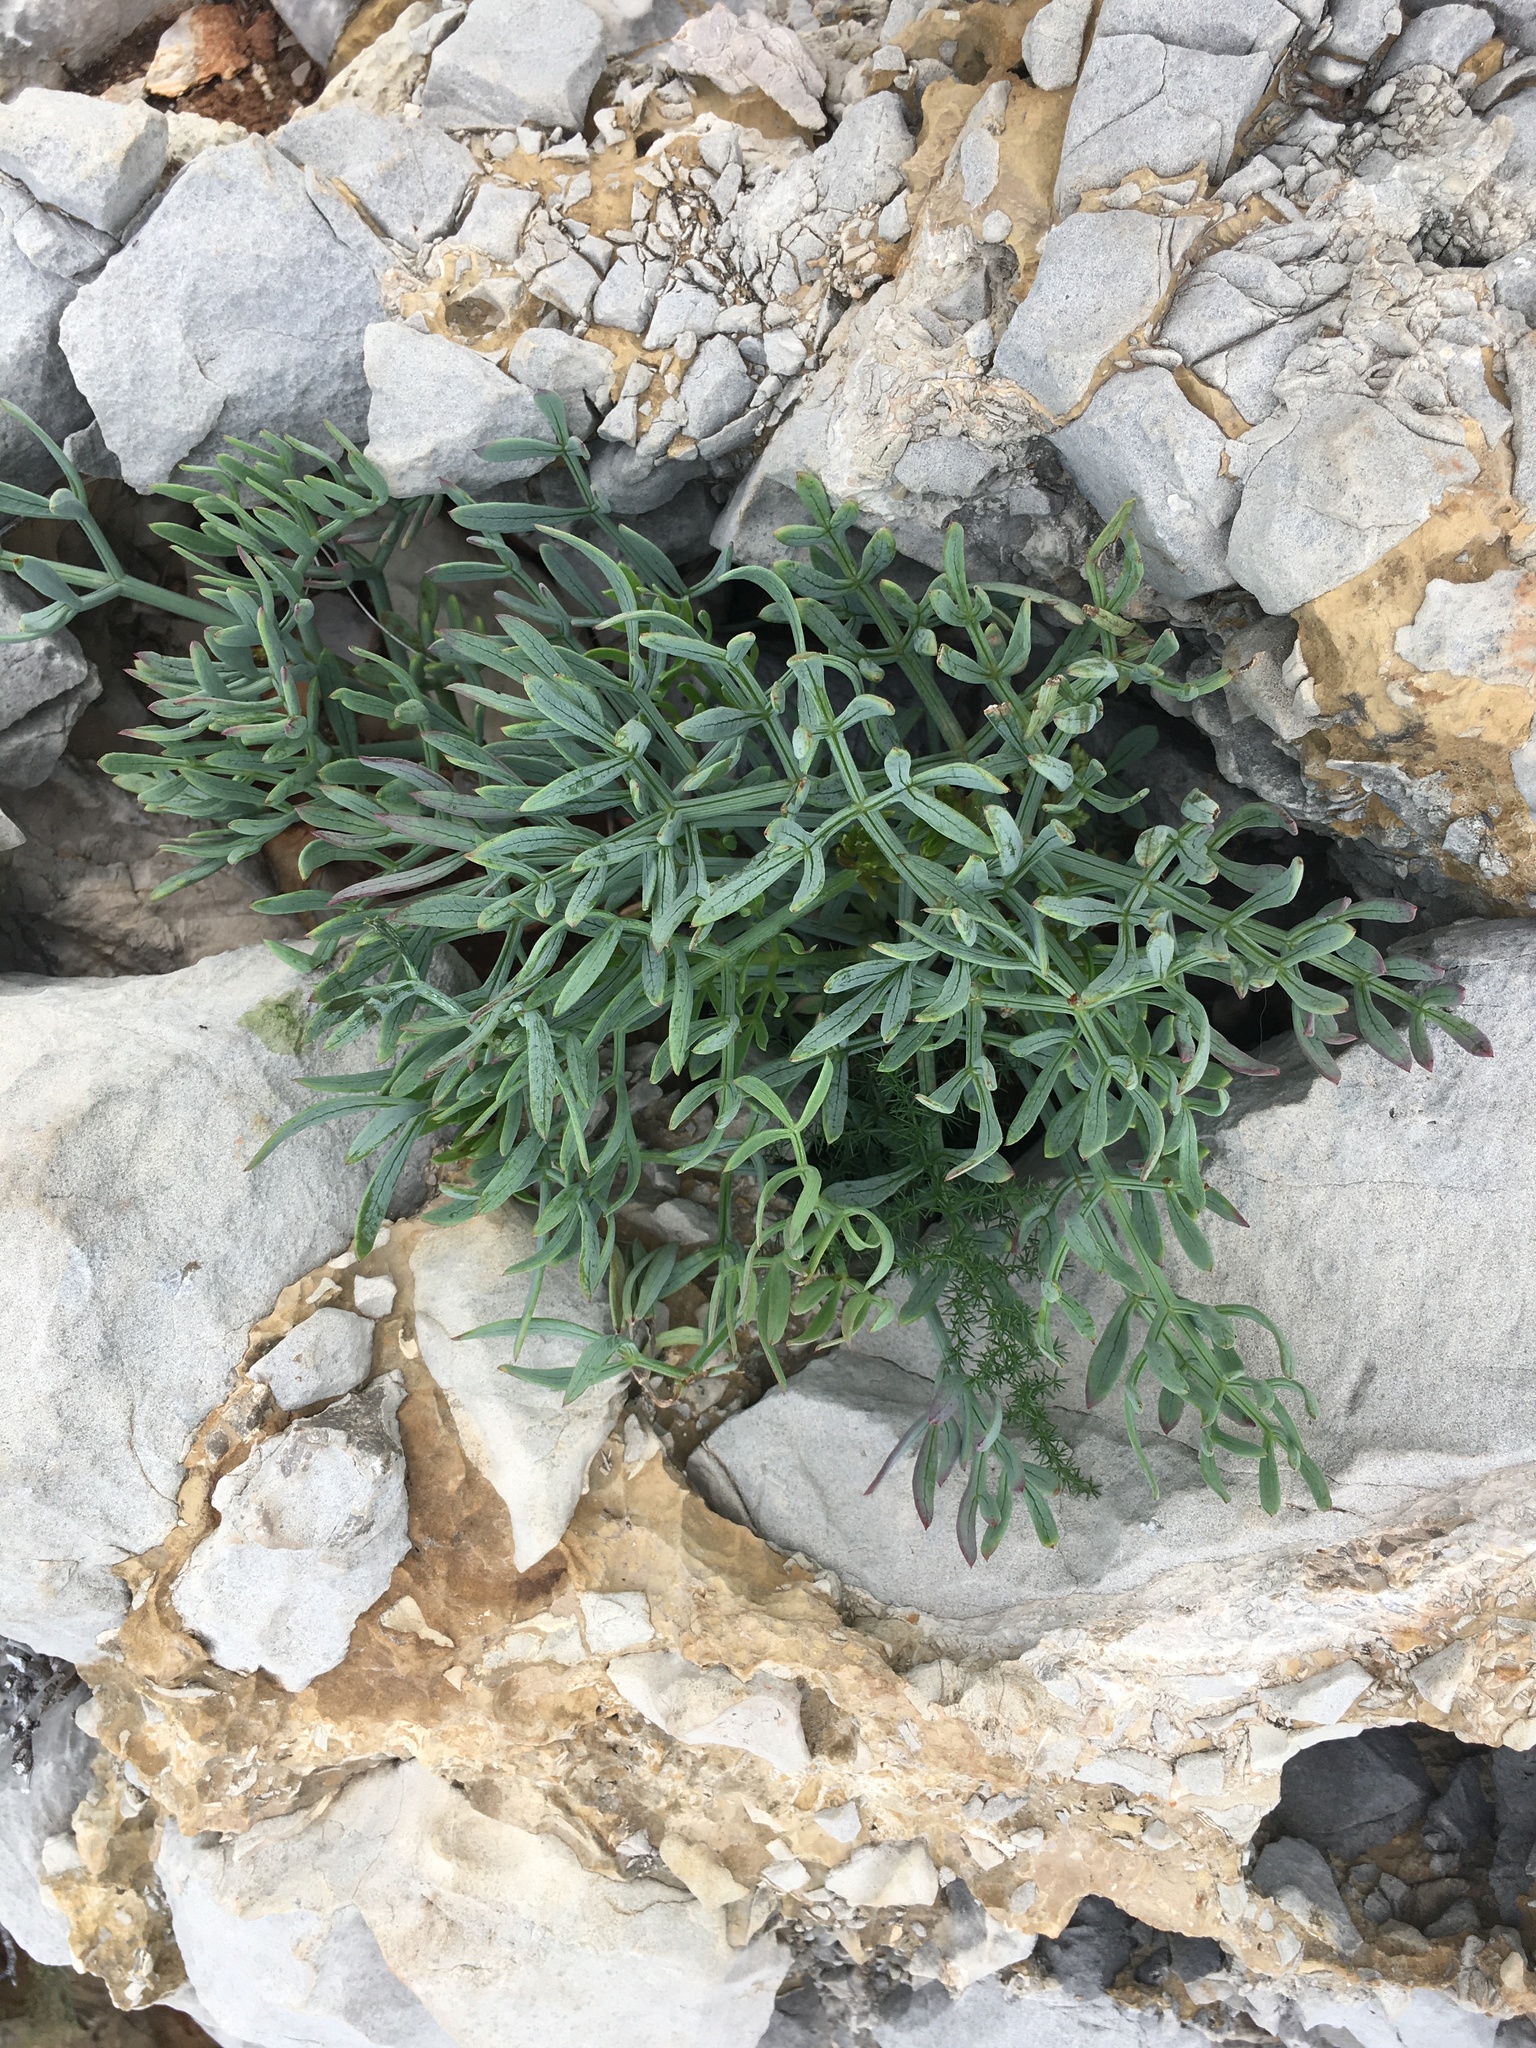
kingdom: Plantae
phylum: Tracheophyta
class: Magnoliopsida
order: Apiales
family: Apiaceae
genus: Crithmum
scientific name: Crithmum maritimum
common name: Rock samphire
